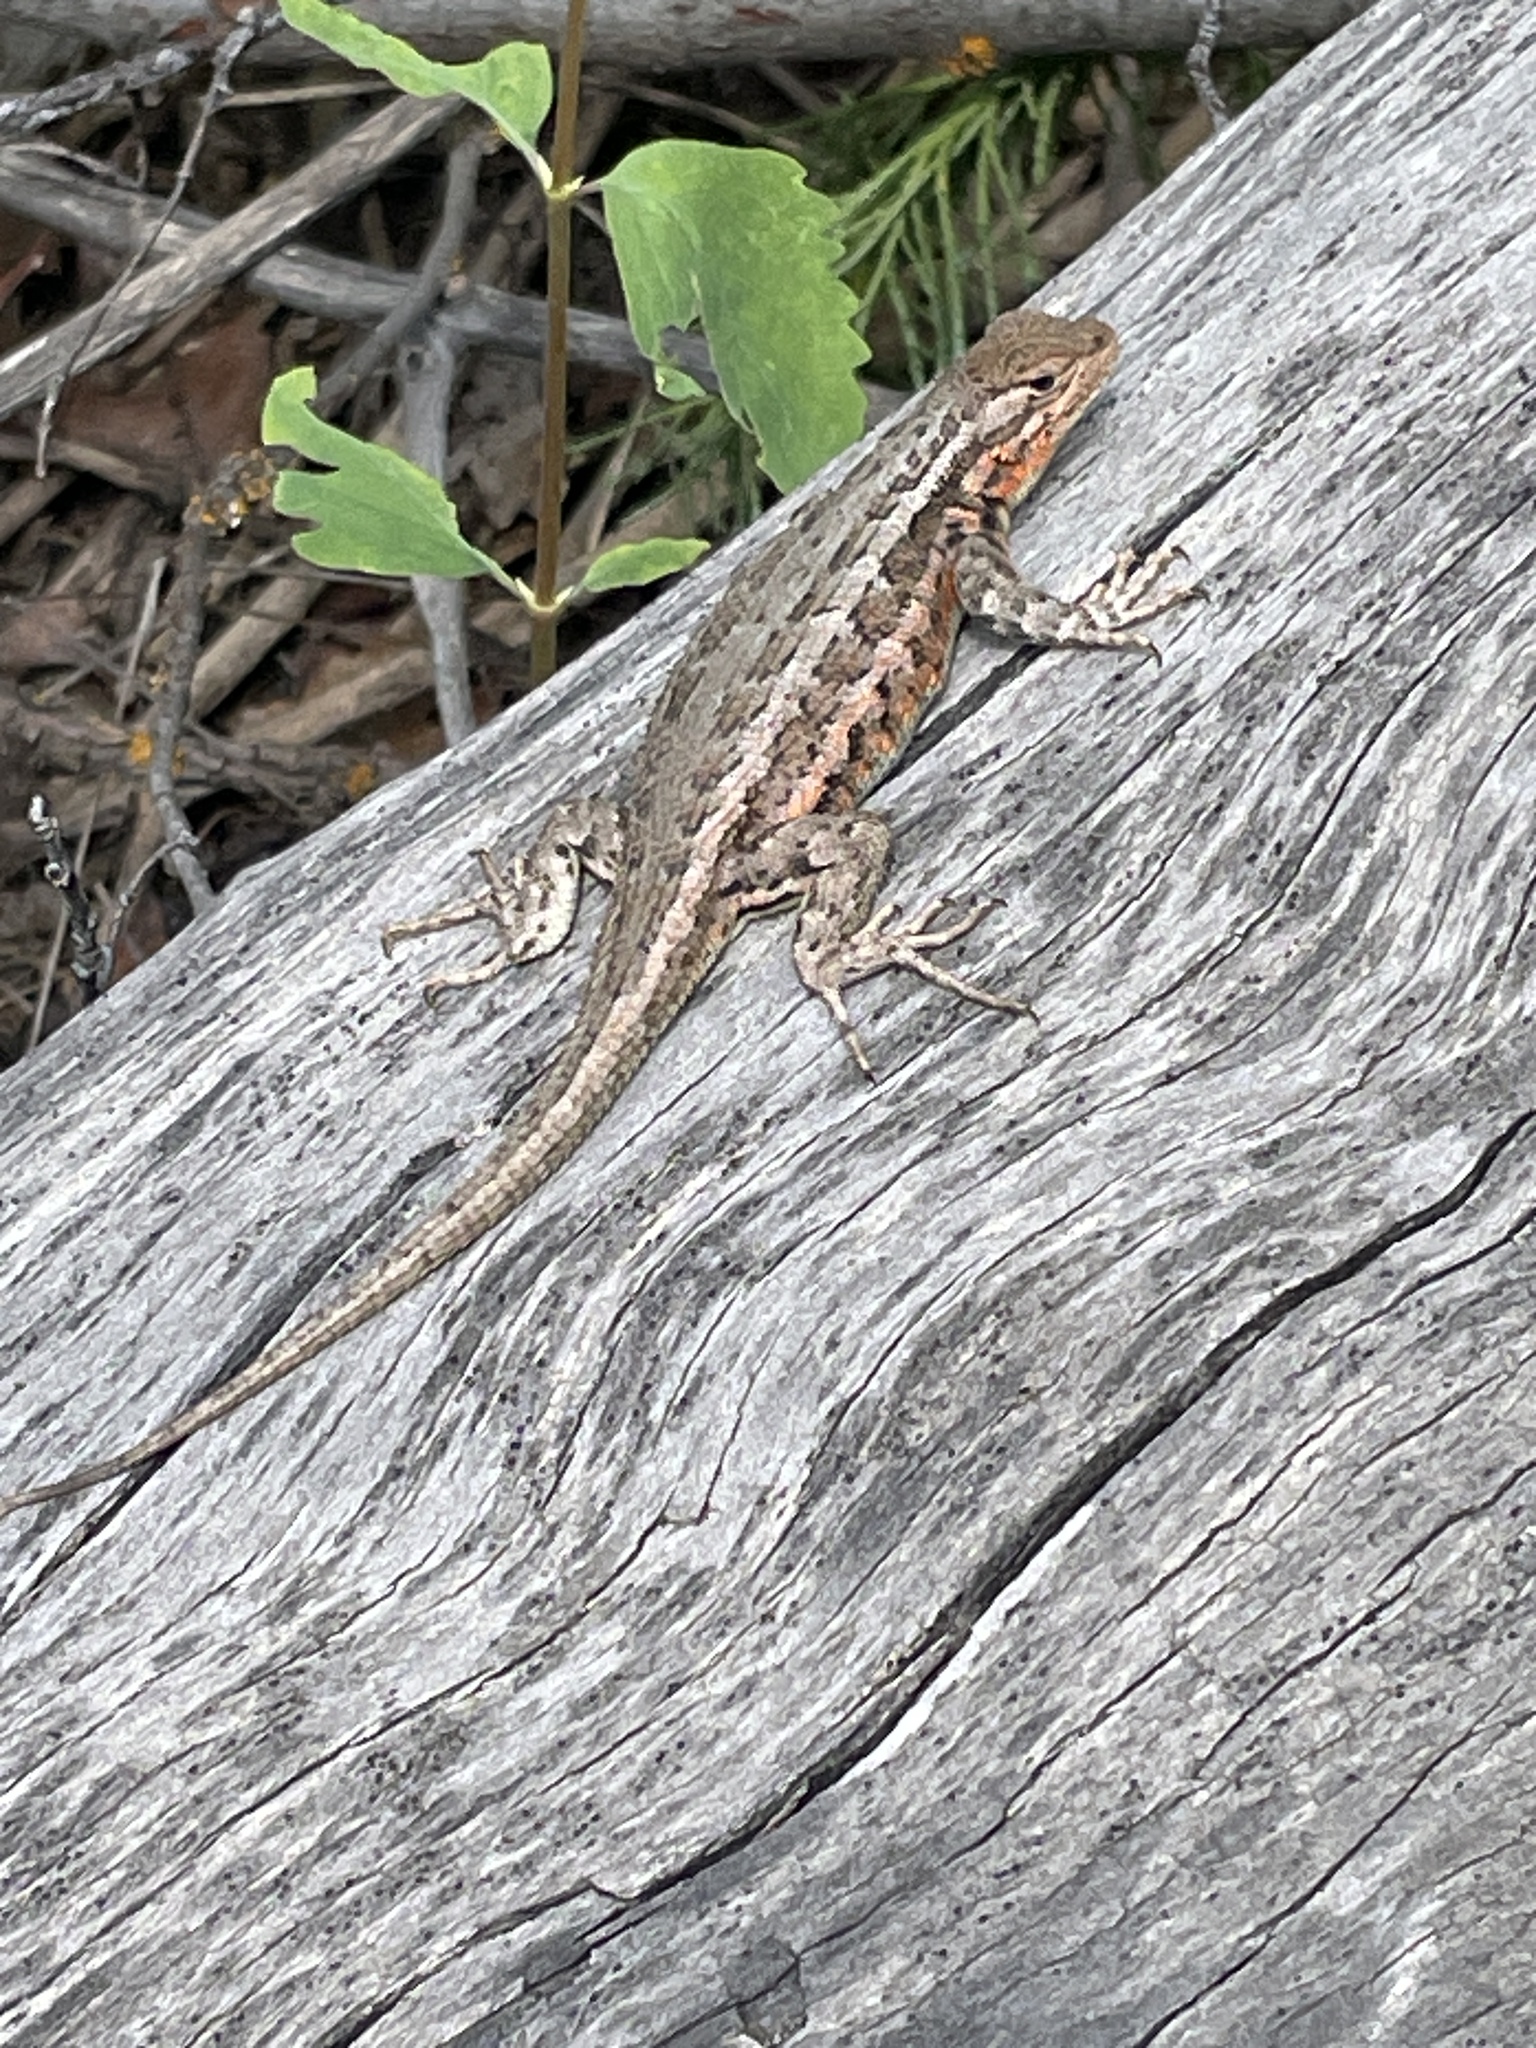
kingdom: Animalia
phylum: Chordata
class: Squamata
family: Phrynosomatidae
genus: Sceloporus
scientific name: Sceloporus graciosus
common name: Sagebrush lizard
